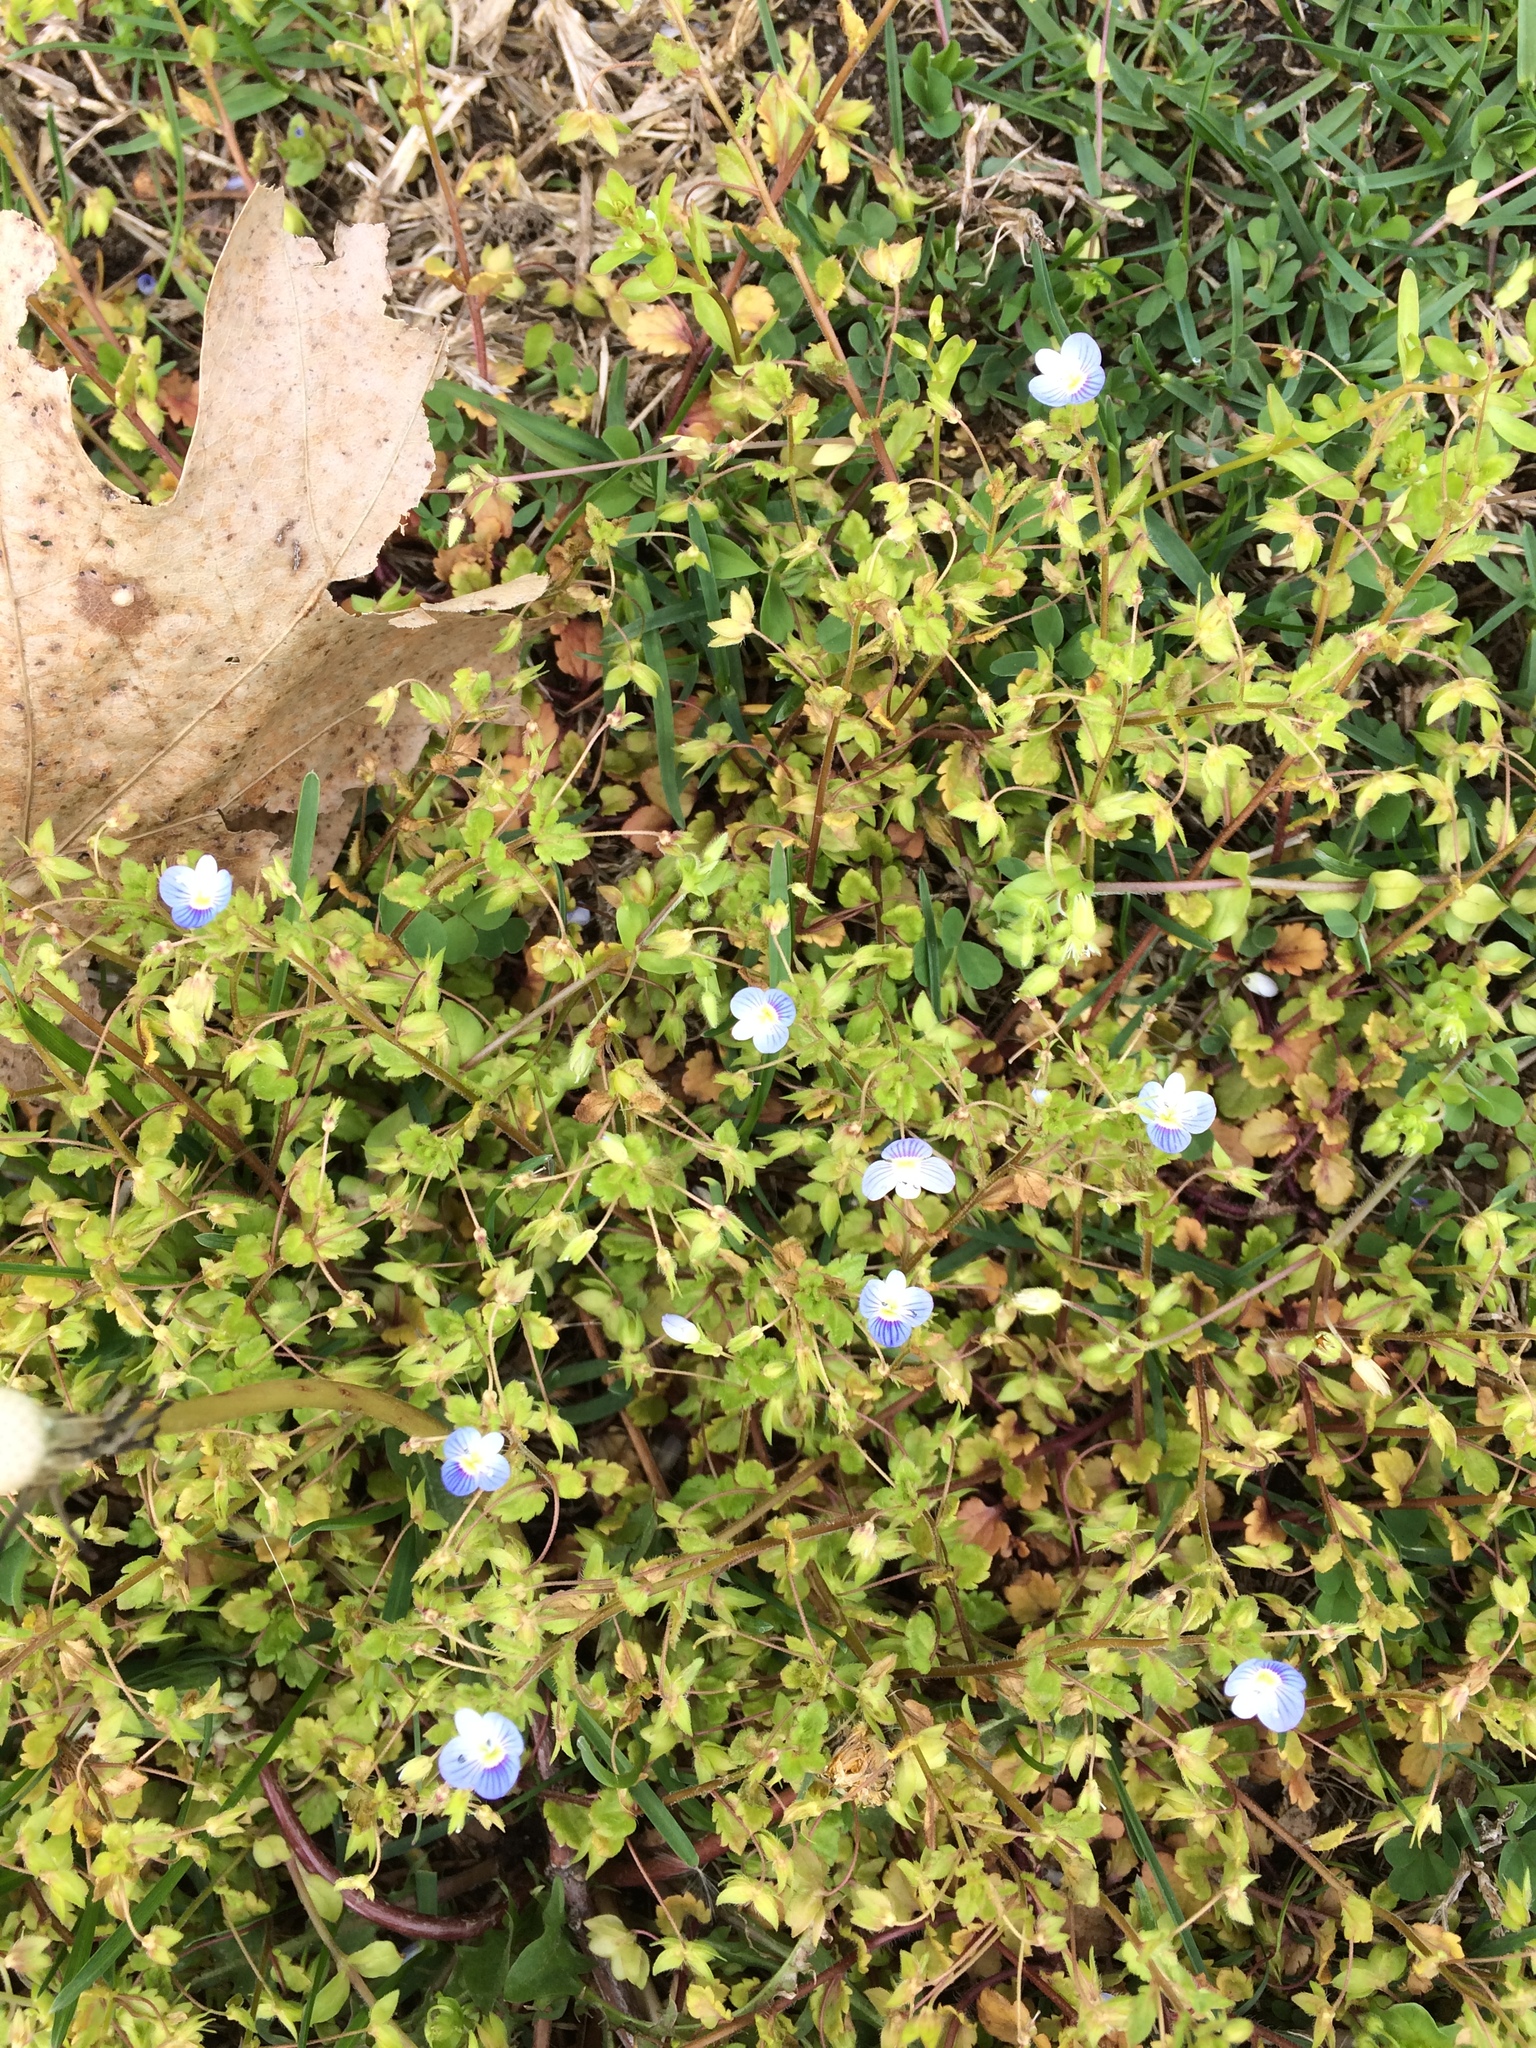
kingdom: Plantae
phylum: Tracheophyta
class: Magnoliopsida
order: Lamiales
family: Plantaginaceae
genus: Veronica
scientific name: Veronica persica
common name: Common field-speedwell
